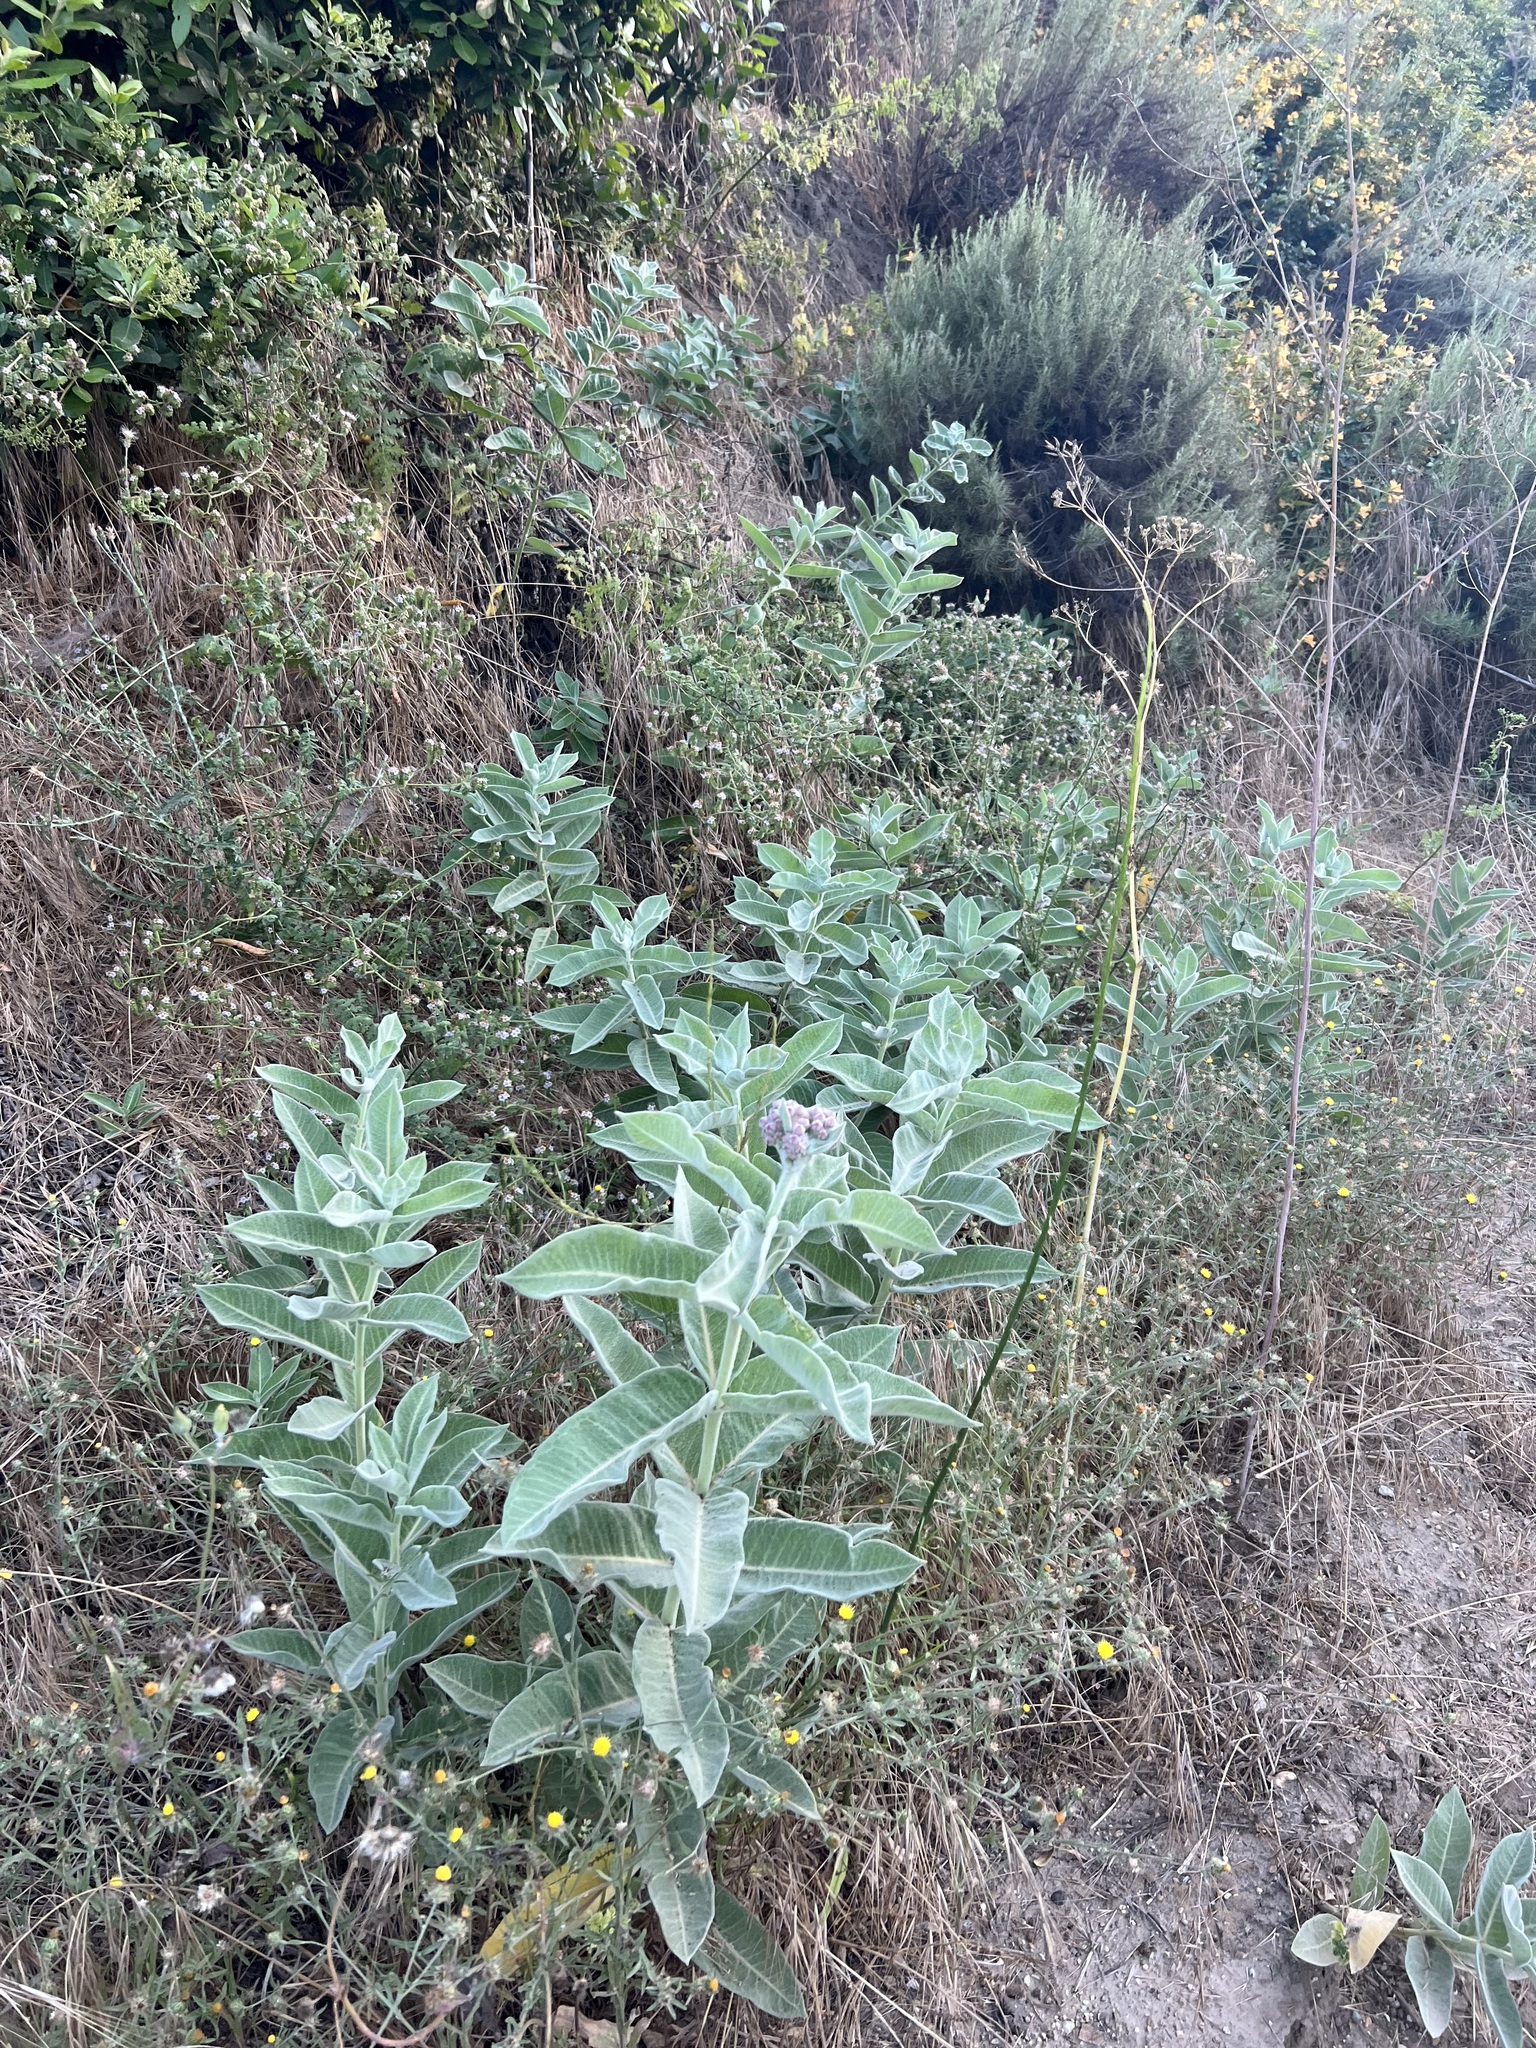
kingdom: Plantae
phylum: Tracheophyta
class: Magnoliopsida
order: Gentianales
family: Apocynaceae
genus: Asclepias
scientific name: Asclepias eriocarpa
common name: Indian milkweed
